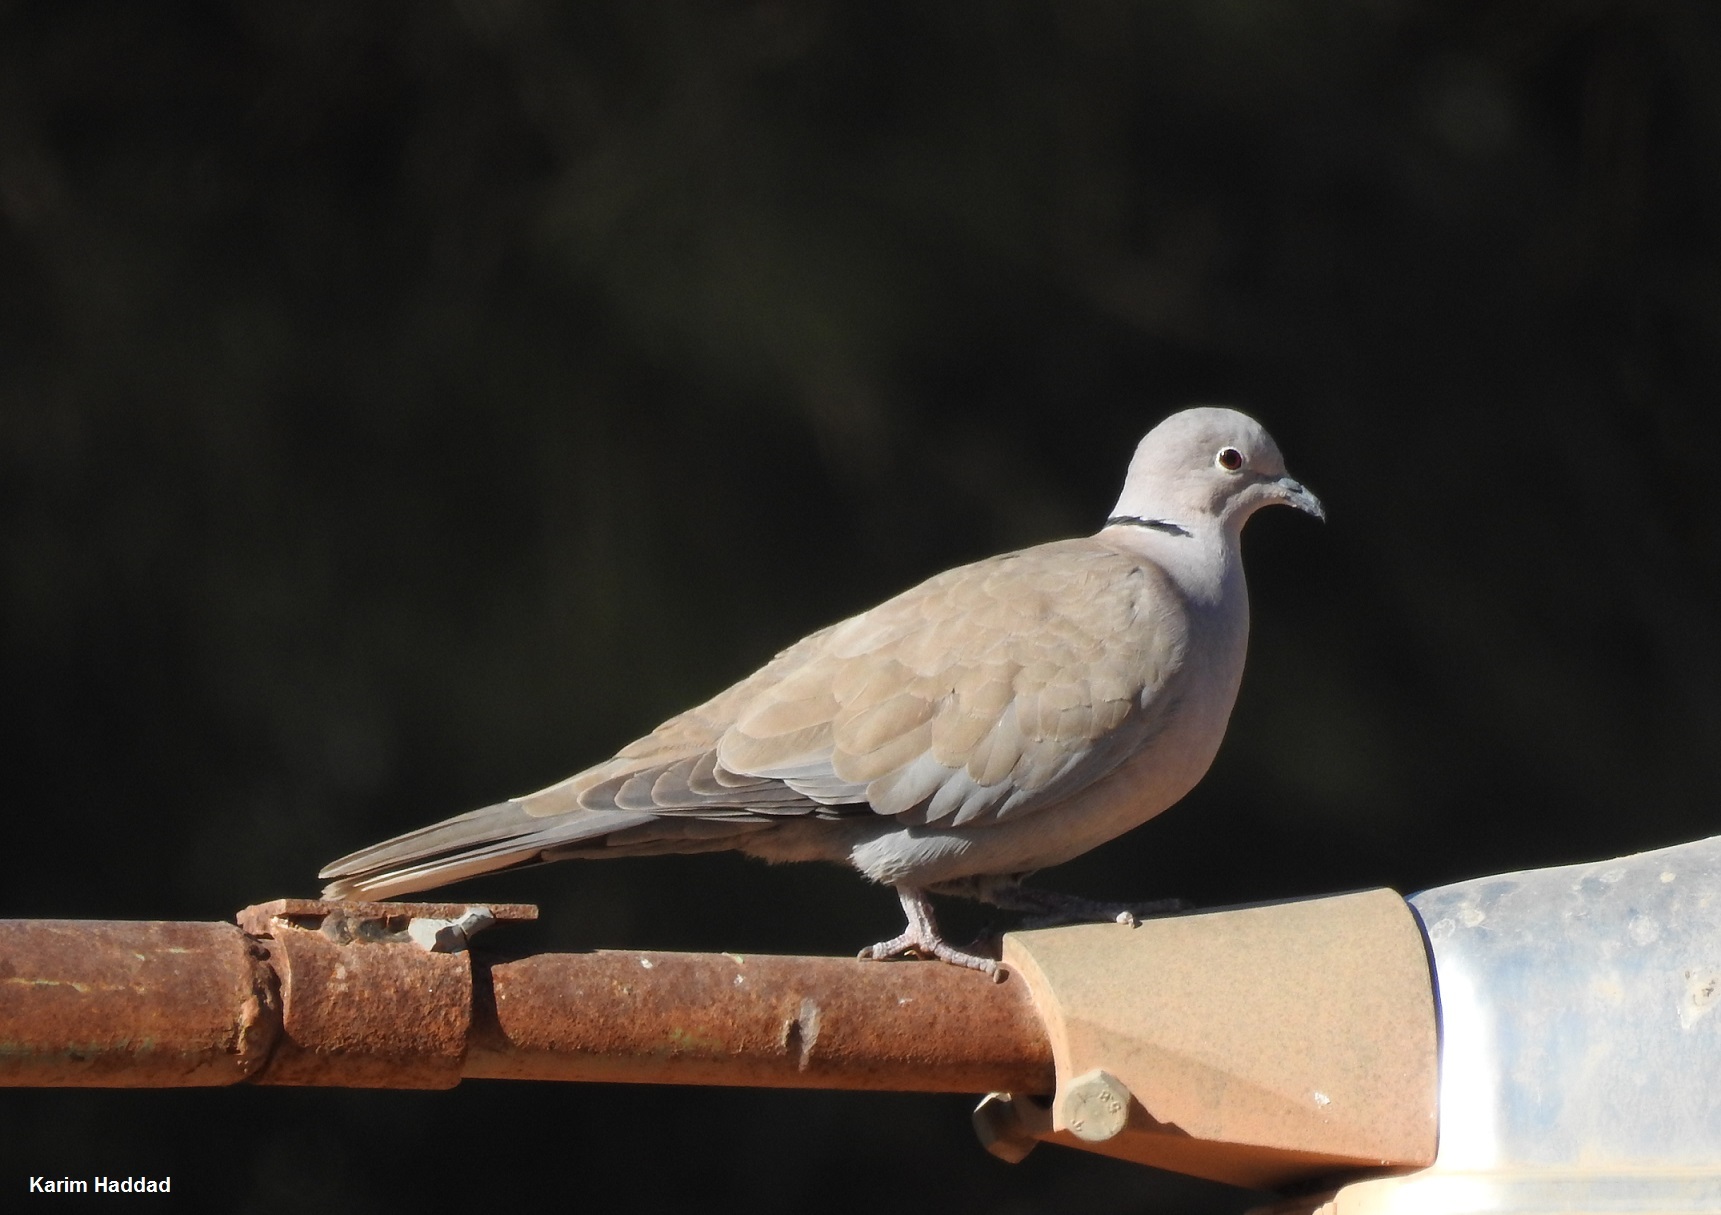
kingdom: Animalia
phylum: Chordata
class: Aves
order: Columbiformes
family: Columbidae
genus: Streptopelia
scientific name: Streptopelia decaocto
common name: Eurasian collared dove
